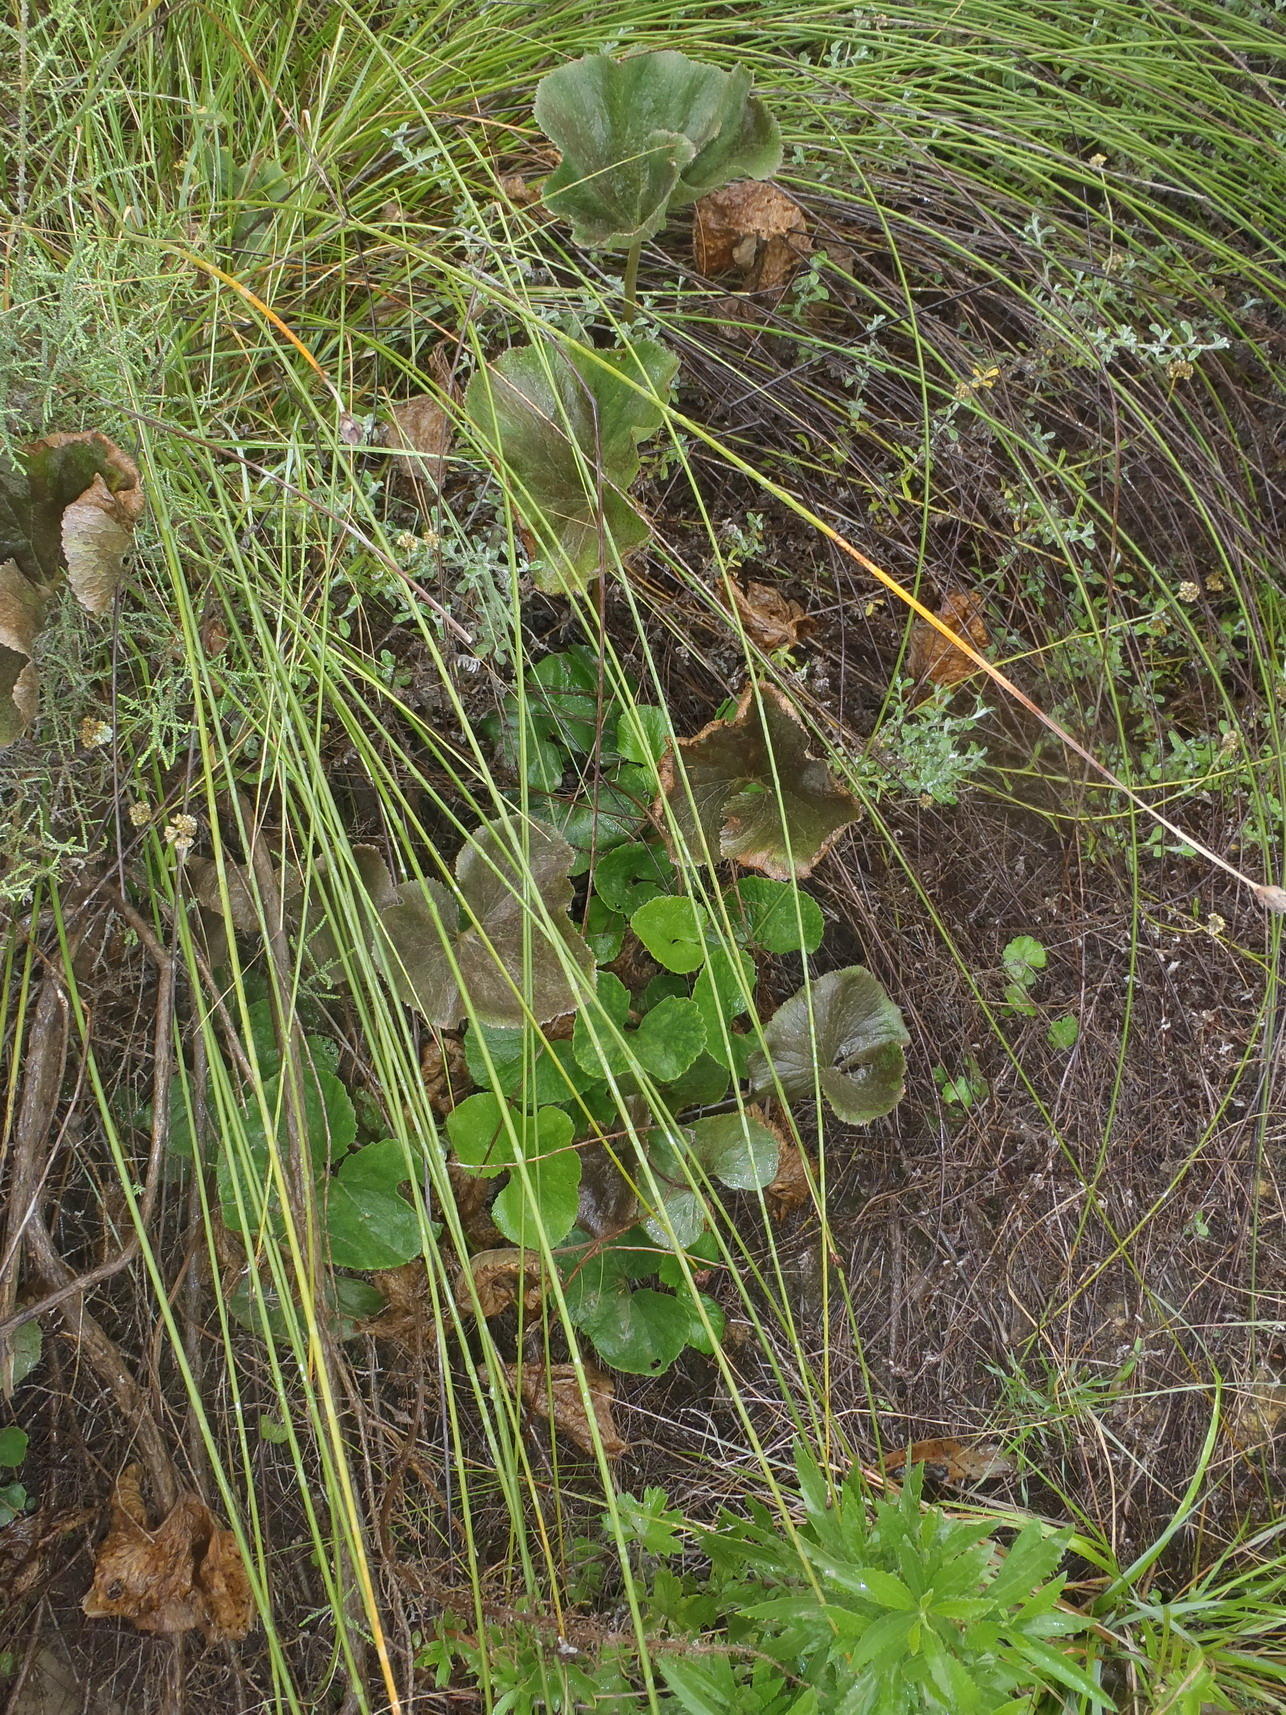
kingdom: Plantae
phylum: Tracheophyta
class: Magnoliopsida
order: Gunnerales
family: Gunneraceae
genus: Gunnera
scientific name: Gunnera perpensa
